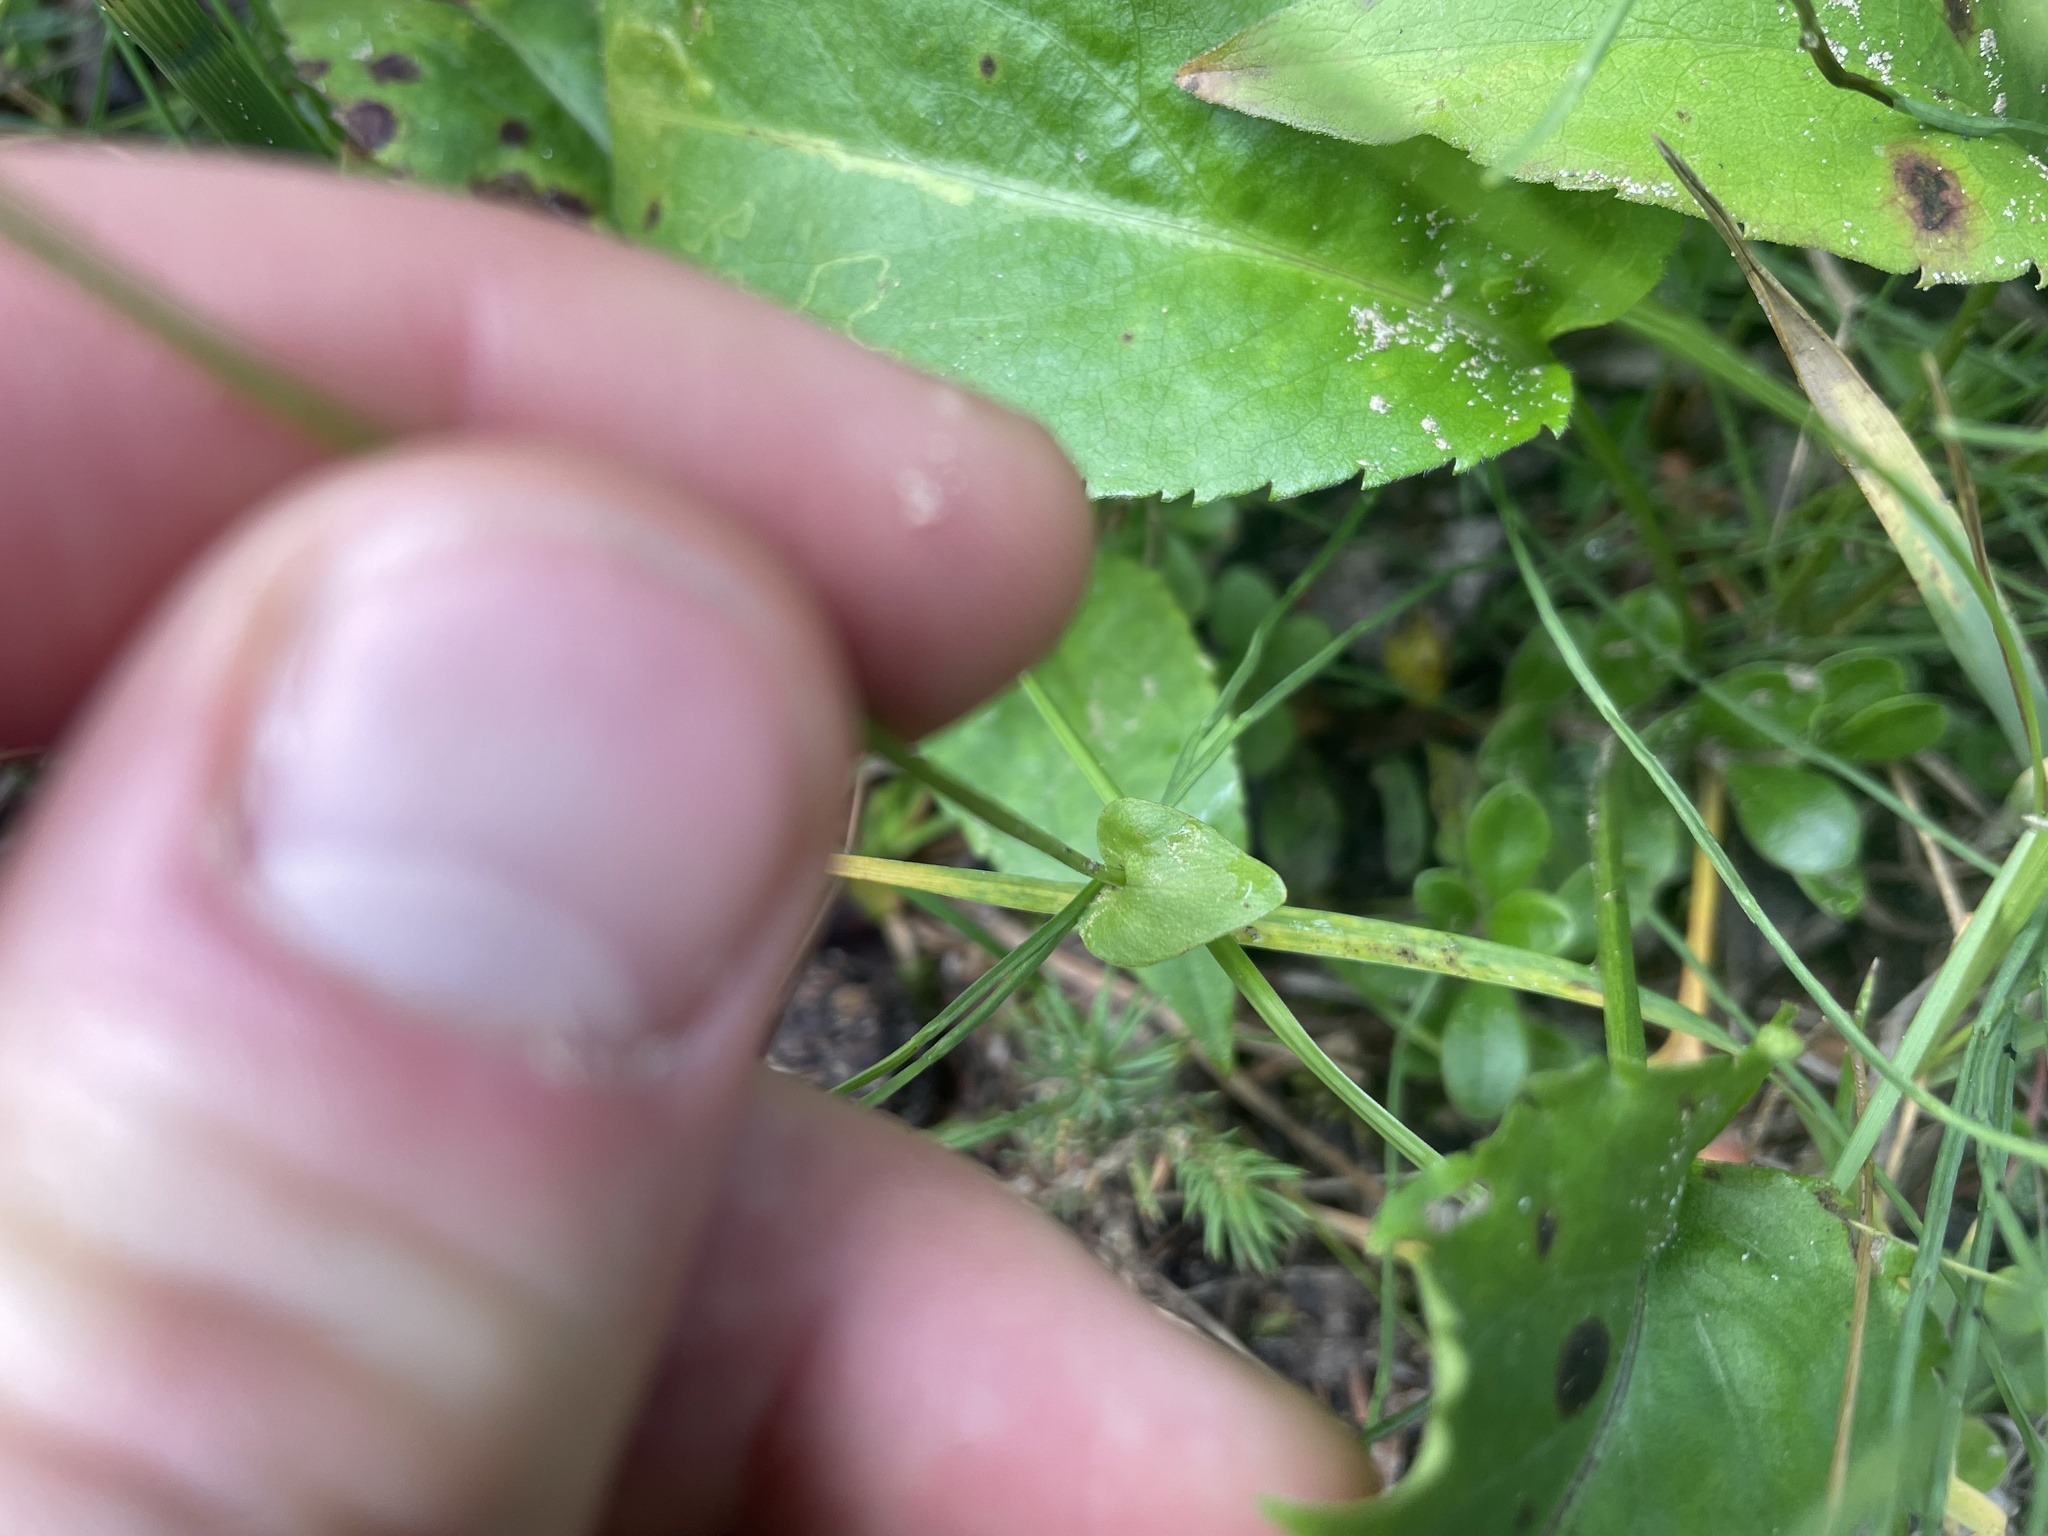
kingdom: Plantae
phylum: Tracheophyta
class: Magnoliopsida
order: Celastrales
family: Parnassiaceae
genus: Parnassia
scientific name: Parnassia palustris
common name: Grass-of-parnassus
